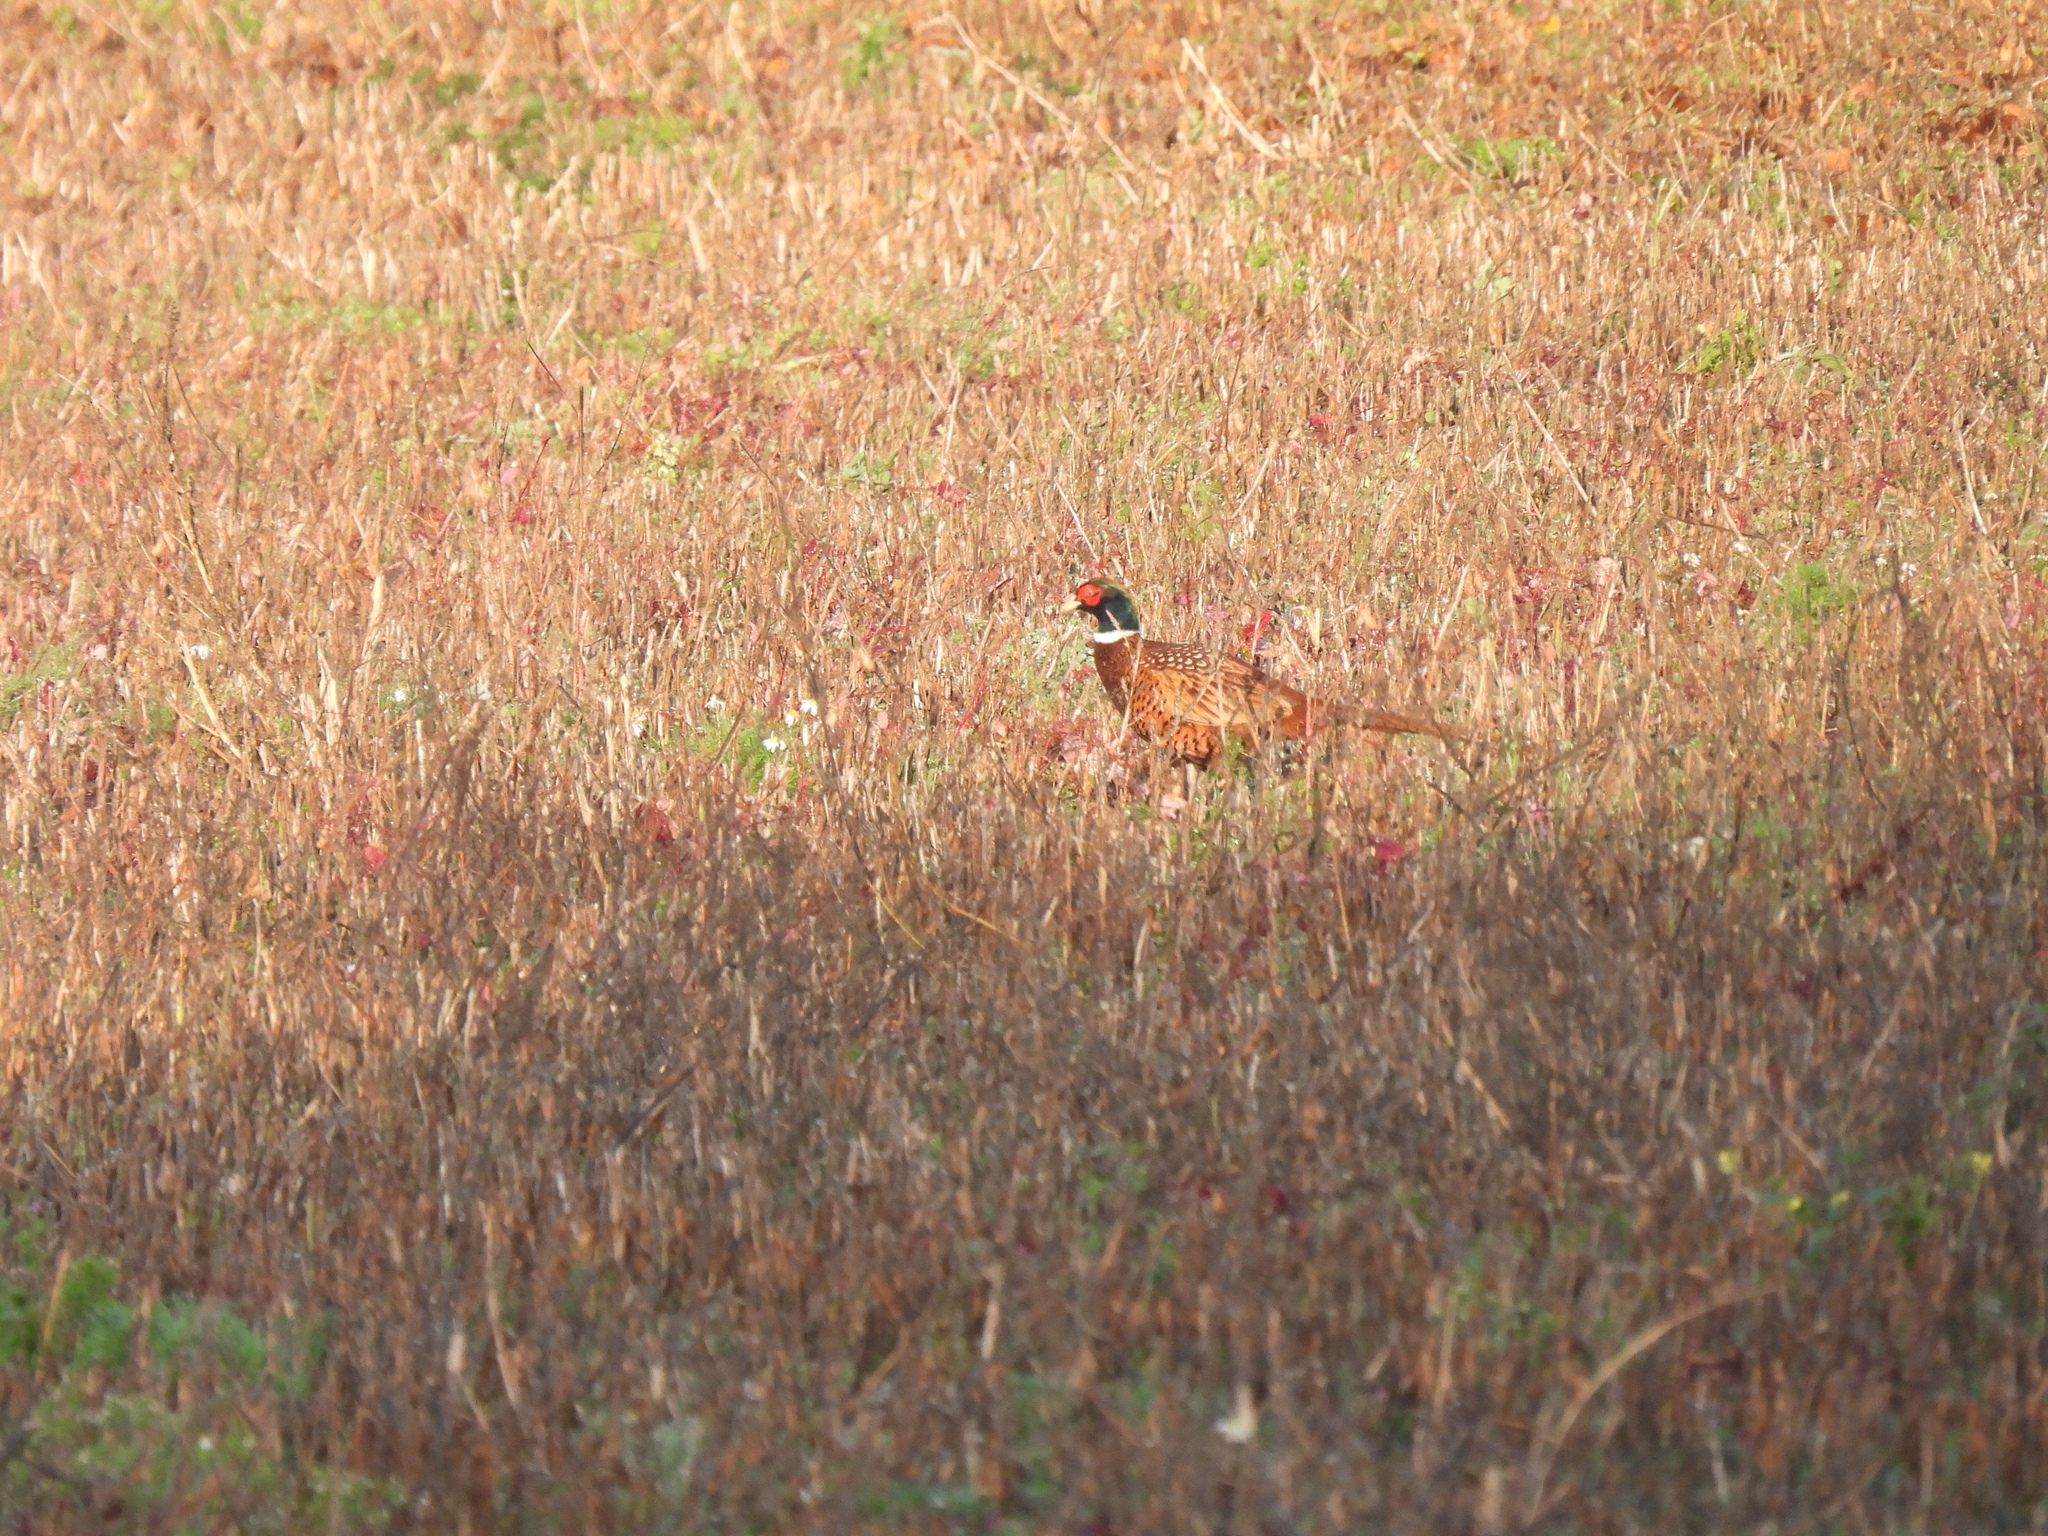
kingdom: Animalia
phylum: Chordata
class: Aves
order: Galliformes
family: Phasianidae
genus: Phasianus
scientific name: Phasianus colchicus
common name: Common pheasant
